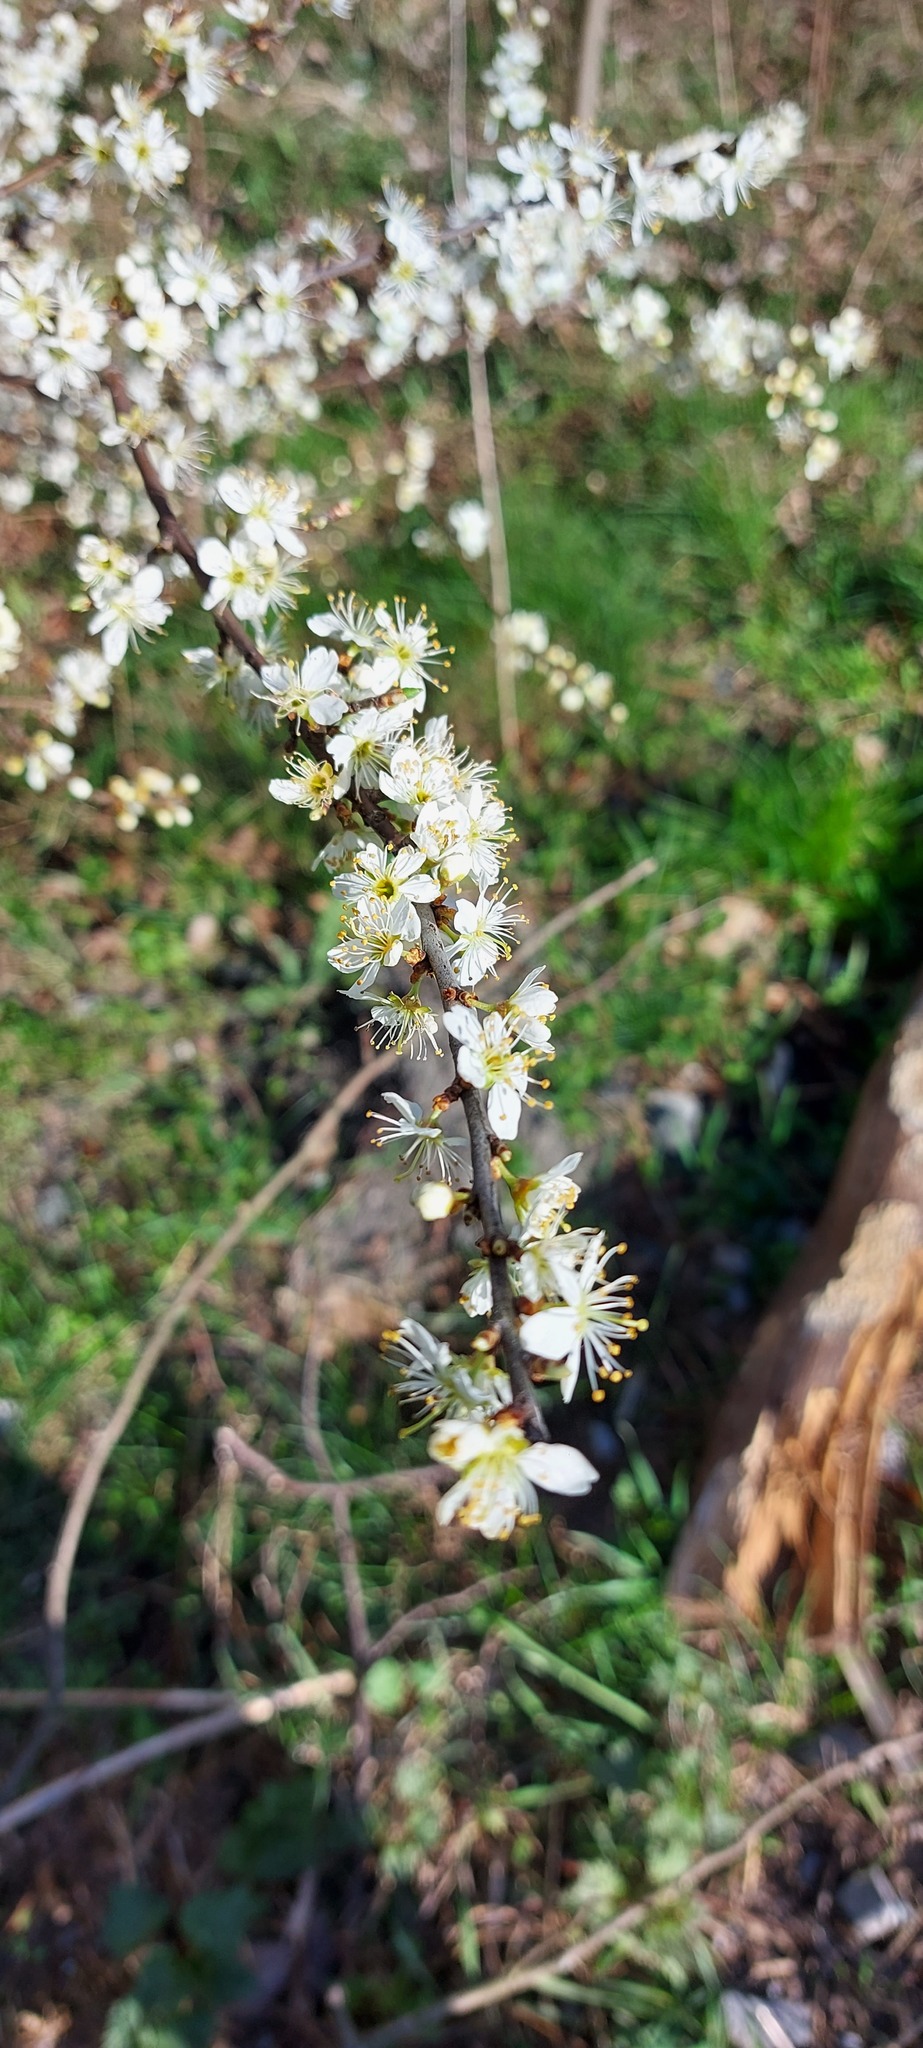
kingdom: Plantae
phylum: Tracheophyta
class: Magnoliopsida
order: Rosales
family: Rosaceae
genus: Prunus
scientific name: Prunus spinosa
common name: Blackthorn
